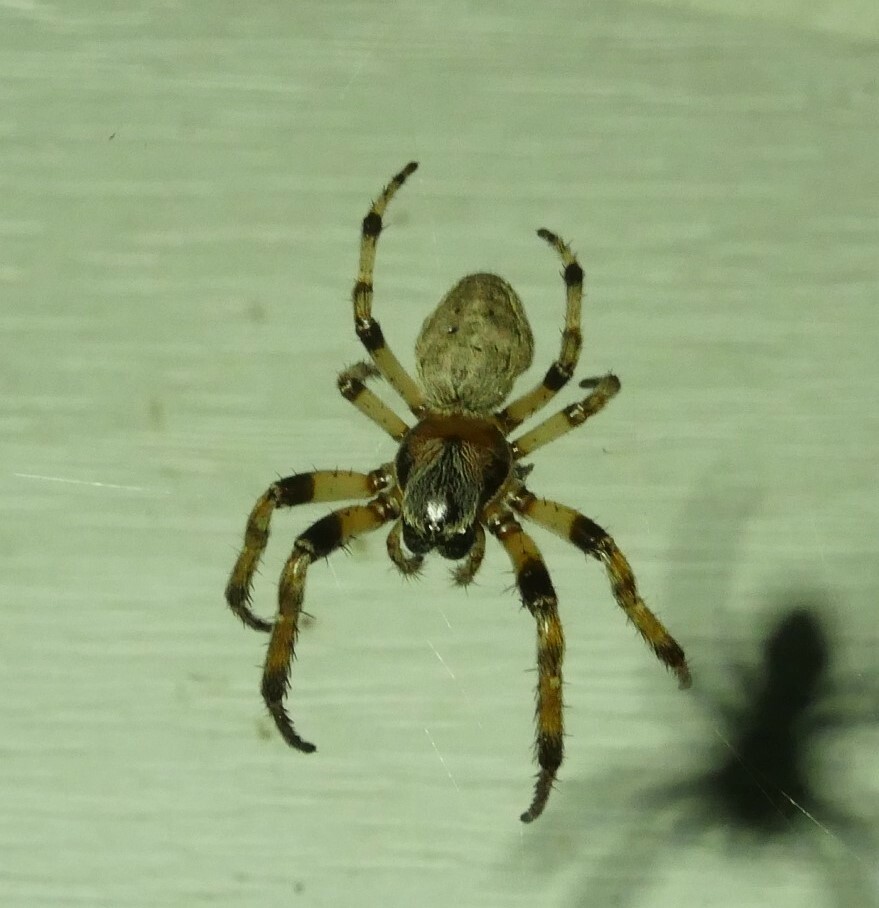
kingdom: Animalia
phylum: Arthropoda
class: Arachnida
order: Araneae
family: Araneidae
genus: Larinioides
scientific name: Larinioides cornutus
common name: Furrow orbweaver
